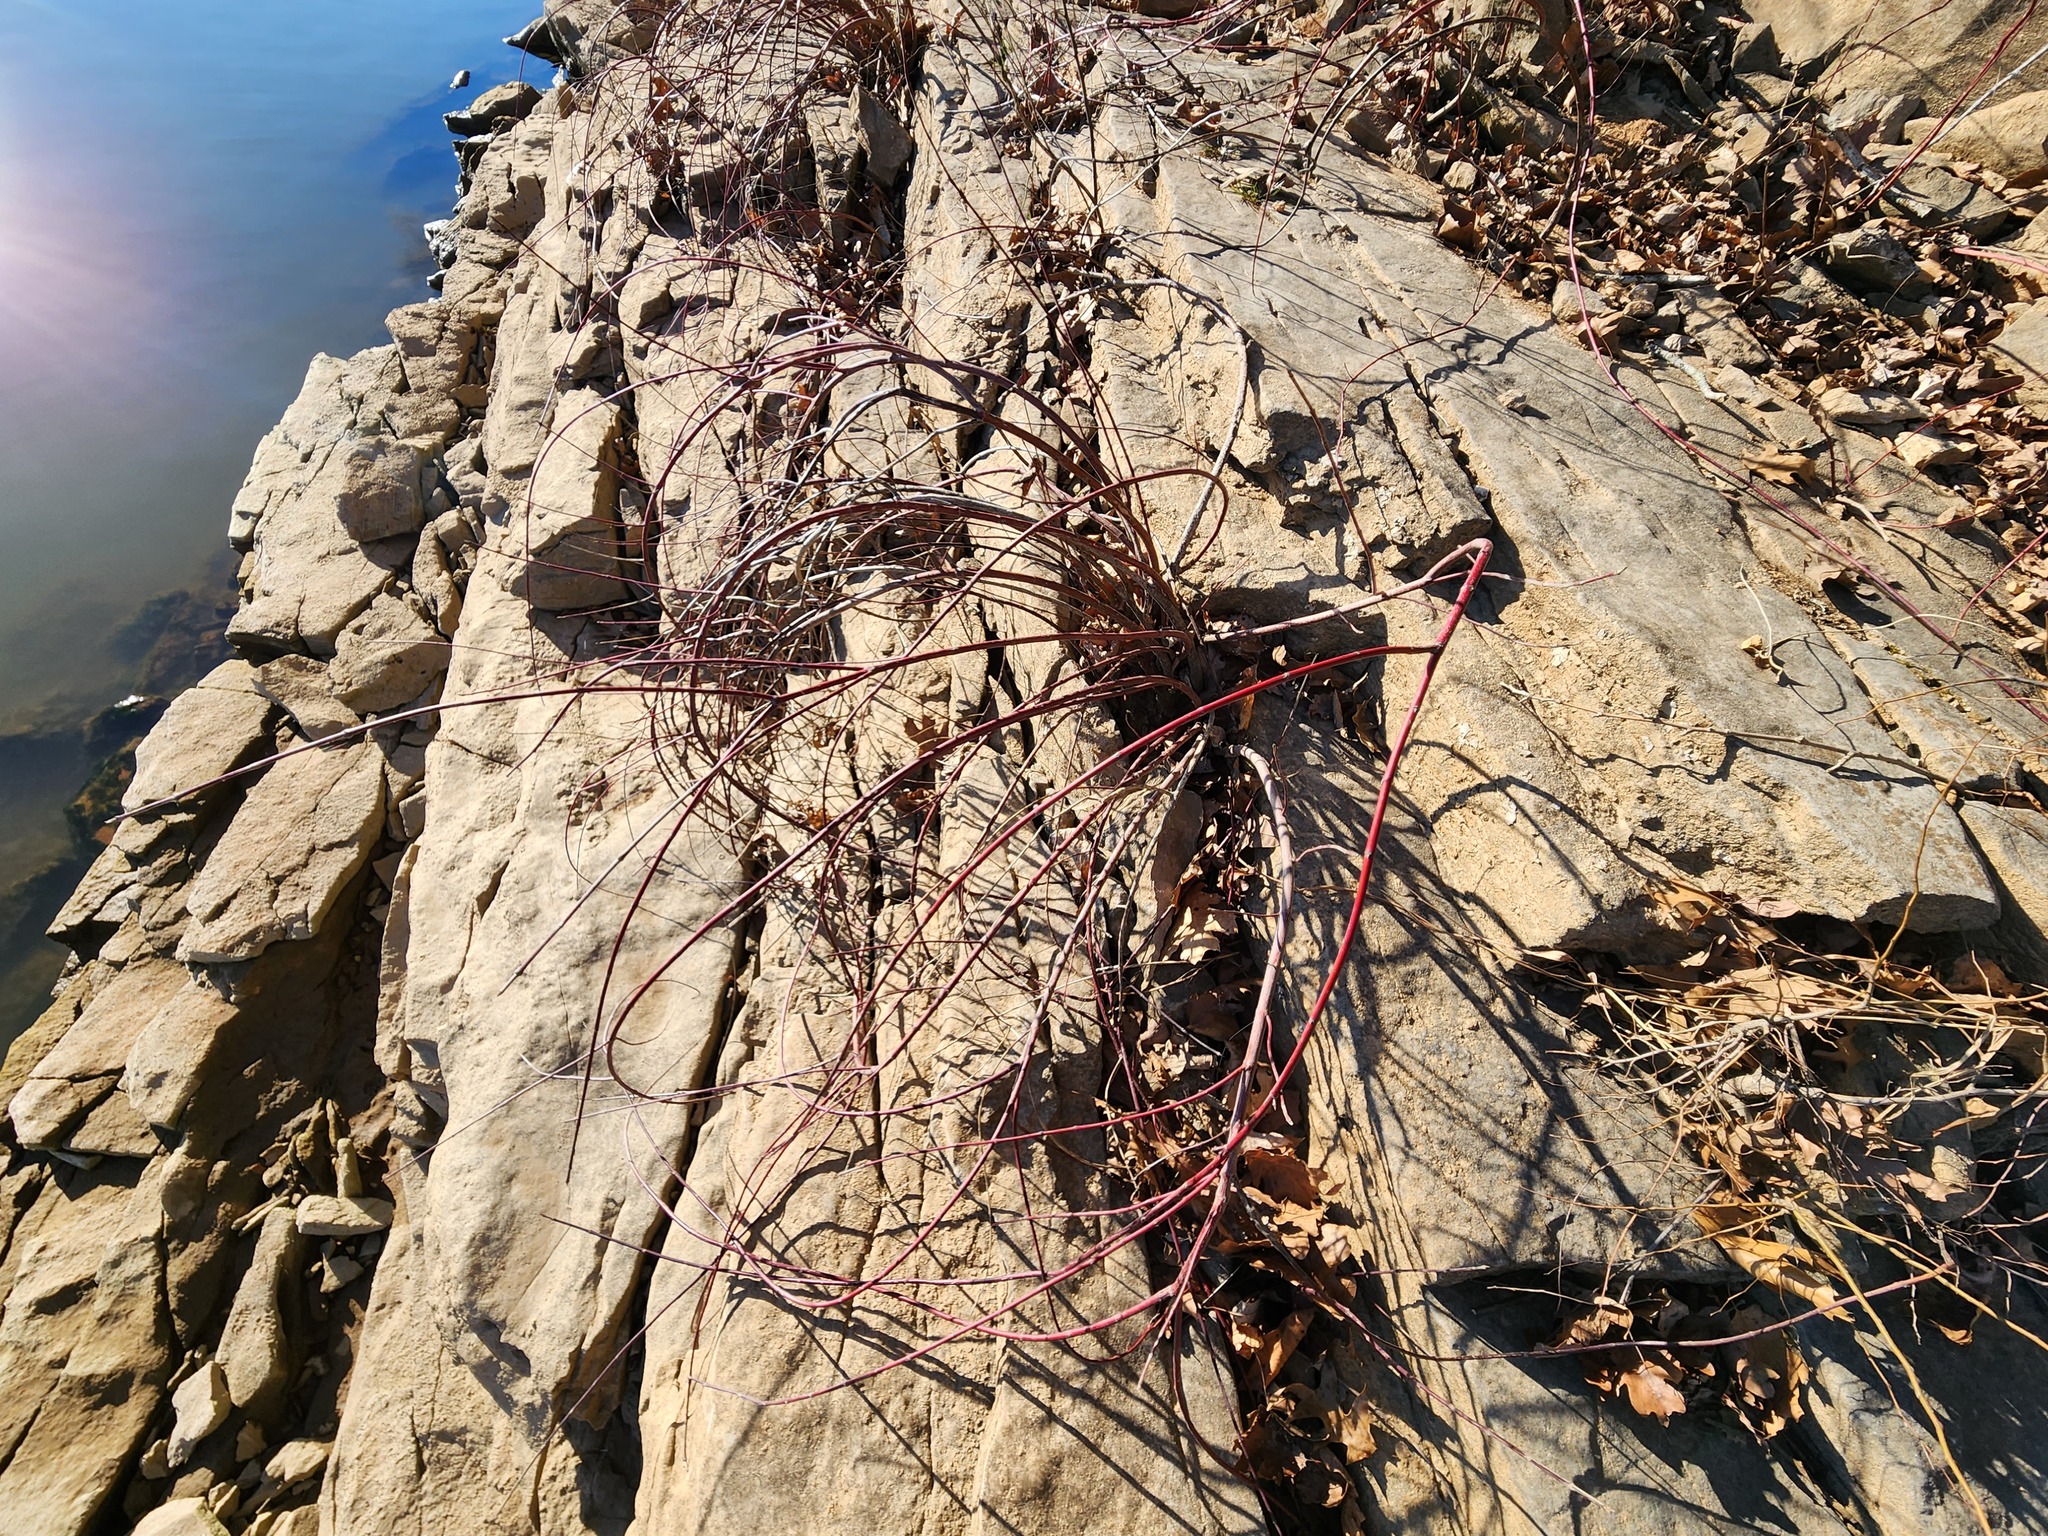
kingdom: Plantae
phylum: Tracheophyta
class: Magnoliopsida
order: Cornales
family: Cornaceae
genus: Cornus
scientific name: Cornus obliqua
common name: Pale dogwood
